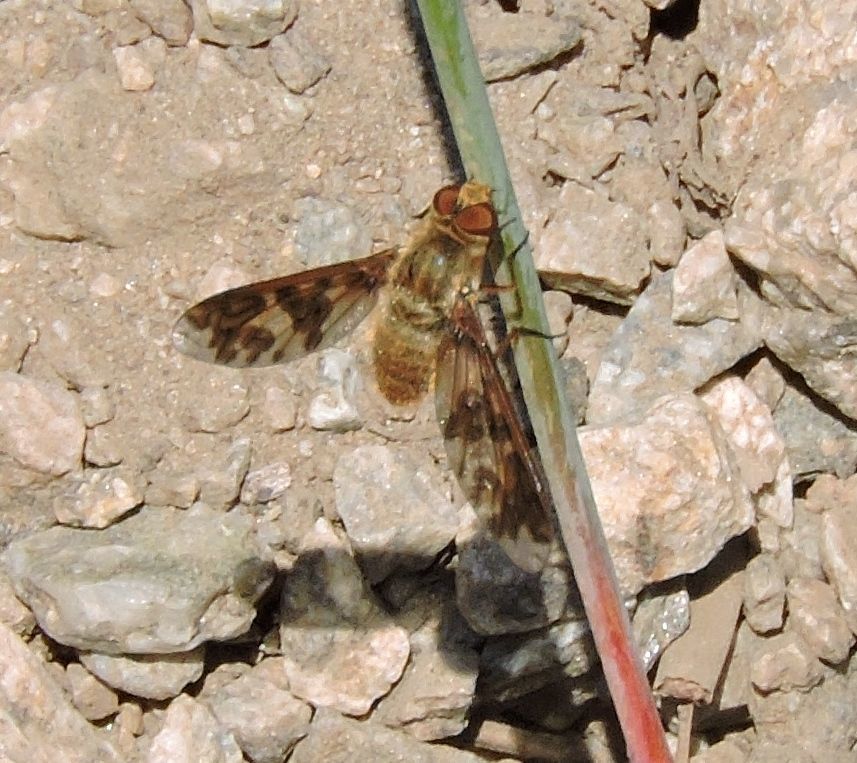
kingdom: Animalia
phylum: Arthropoda
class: Insecta
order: Diptera
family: Bombyliidae
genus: Dipalta
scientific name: Dipalta serpentina
